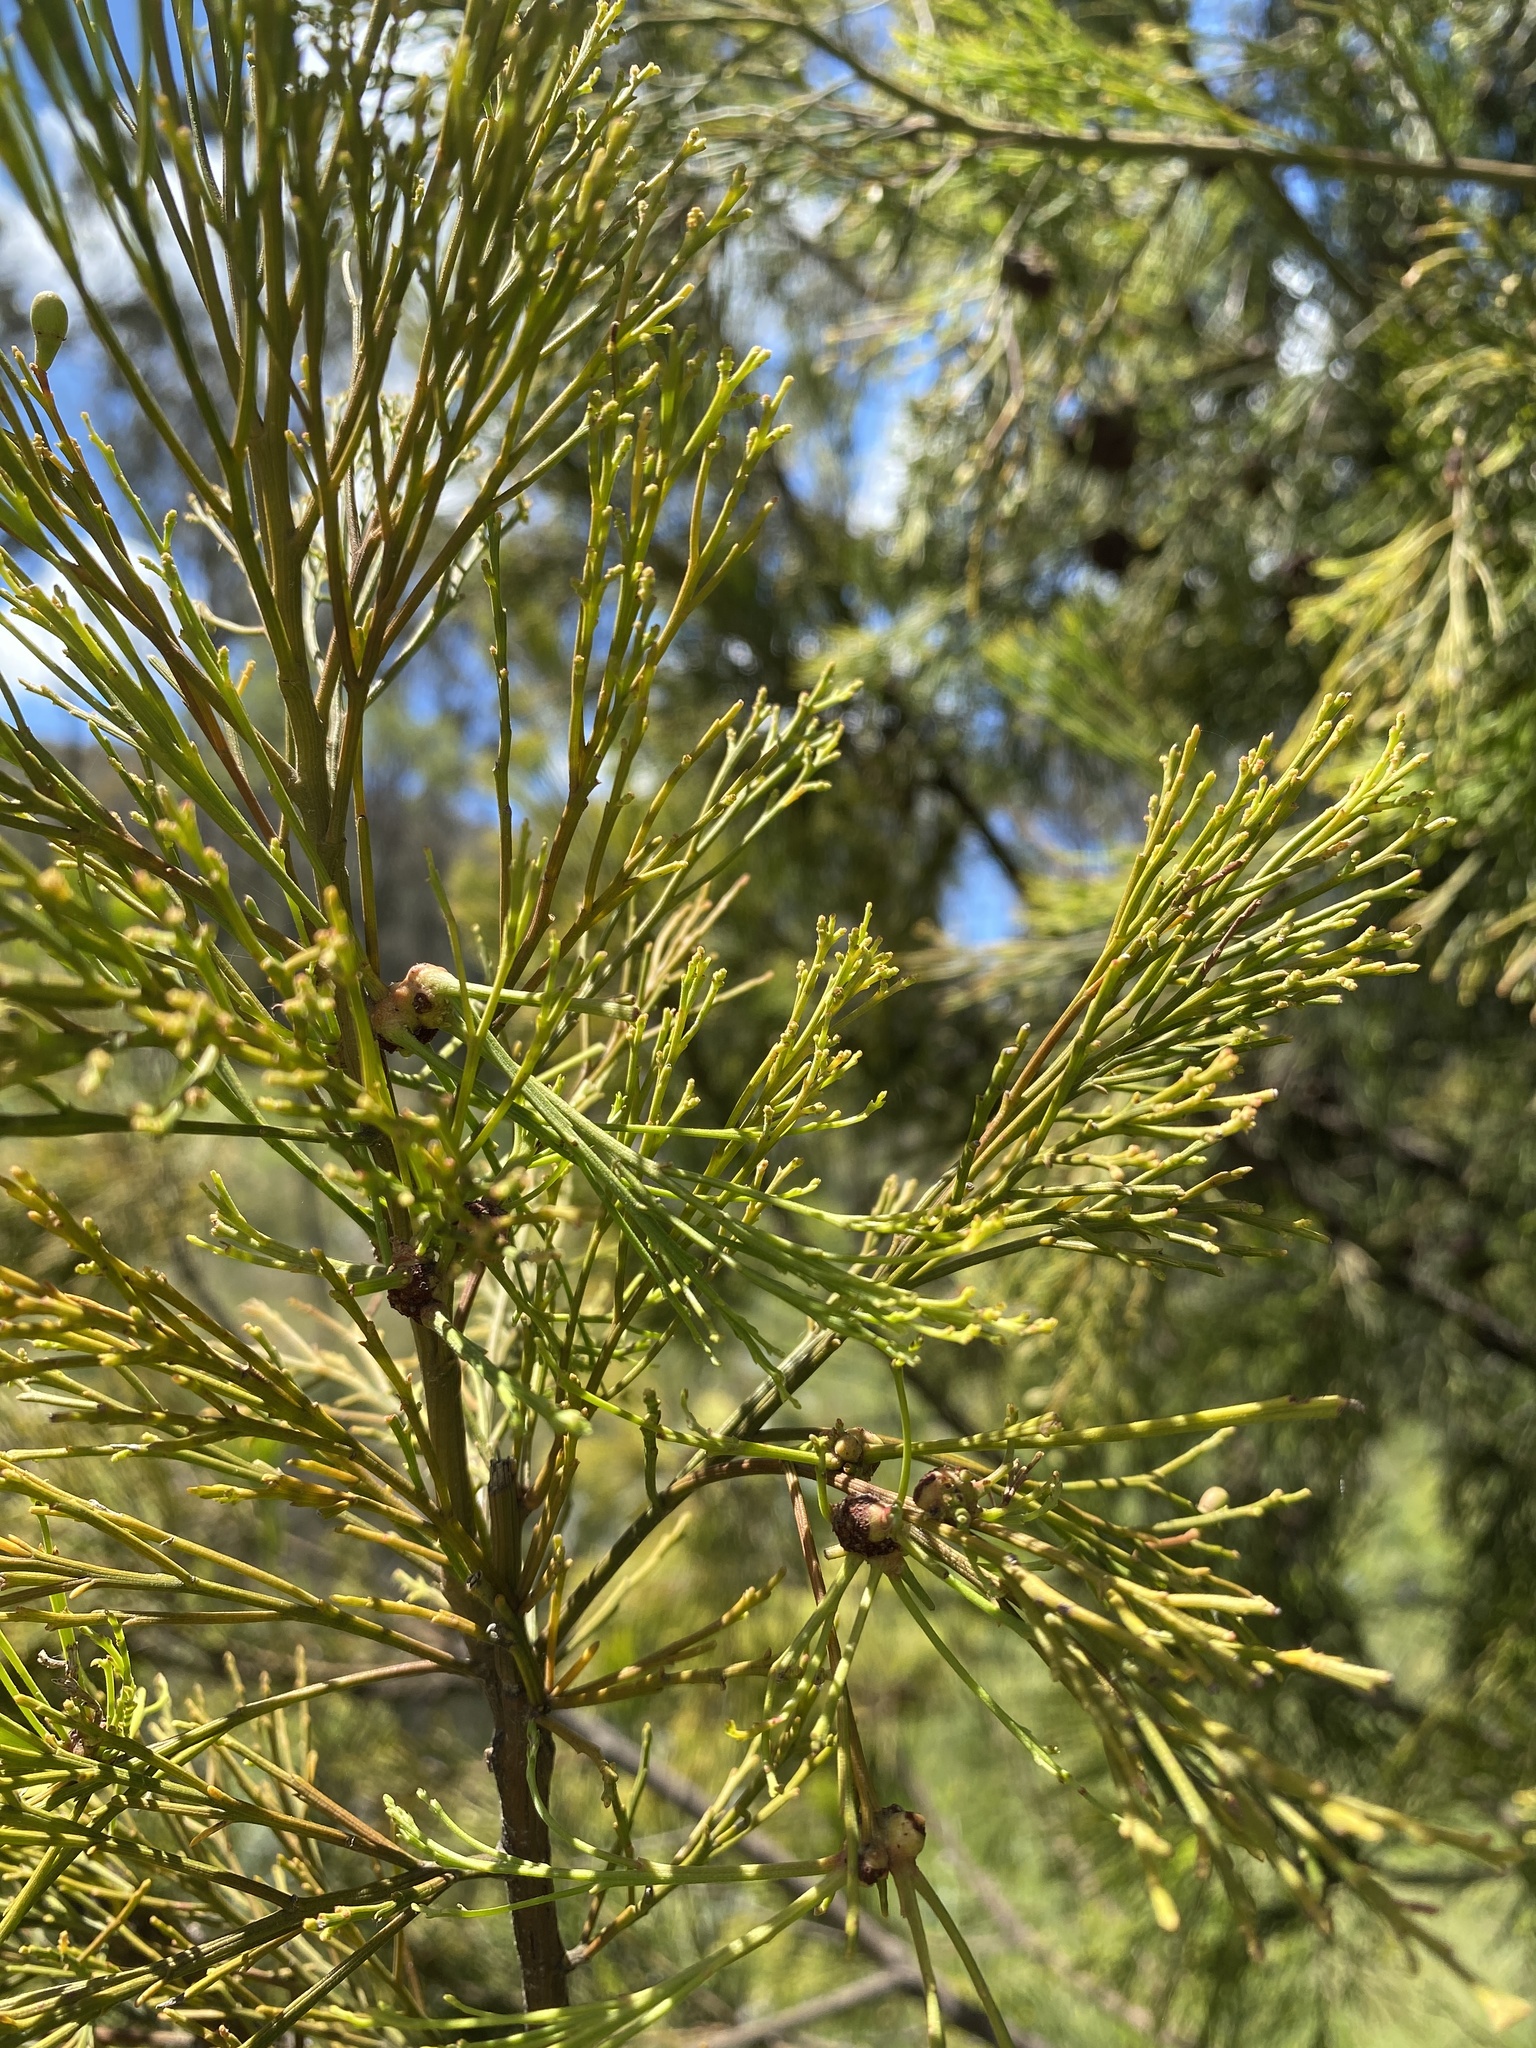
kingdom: Plantae
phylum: Tracheophyta
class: Magnoliopsida
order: Santalales
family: Santalaceae
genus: Exocarpos
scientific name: Exocarpos cupressiformis
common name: Cherry ballart
